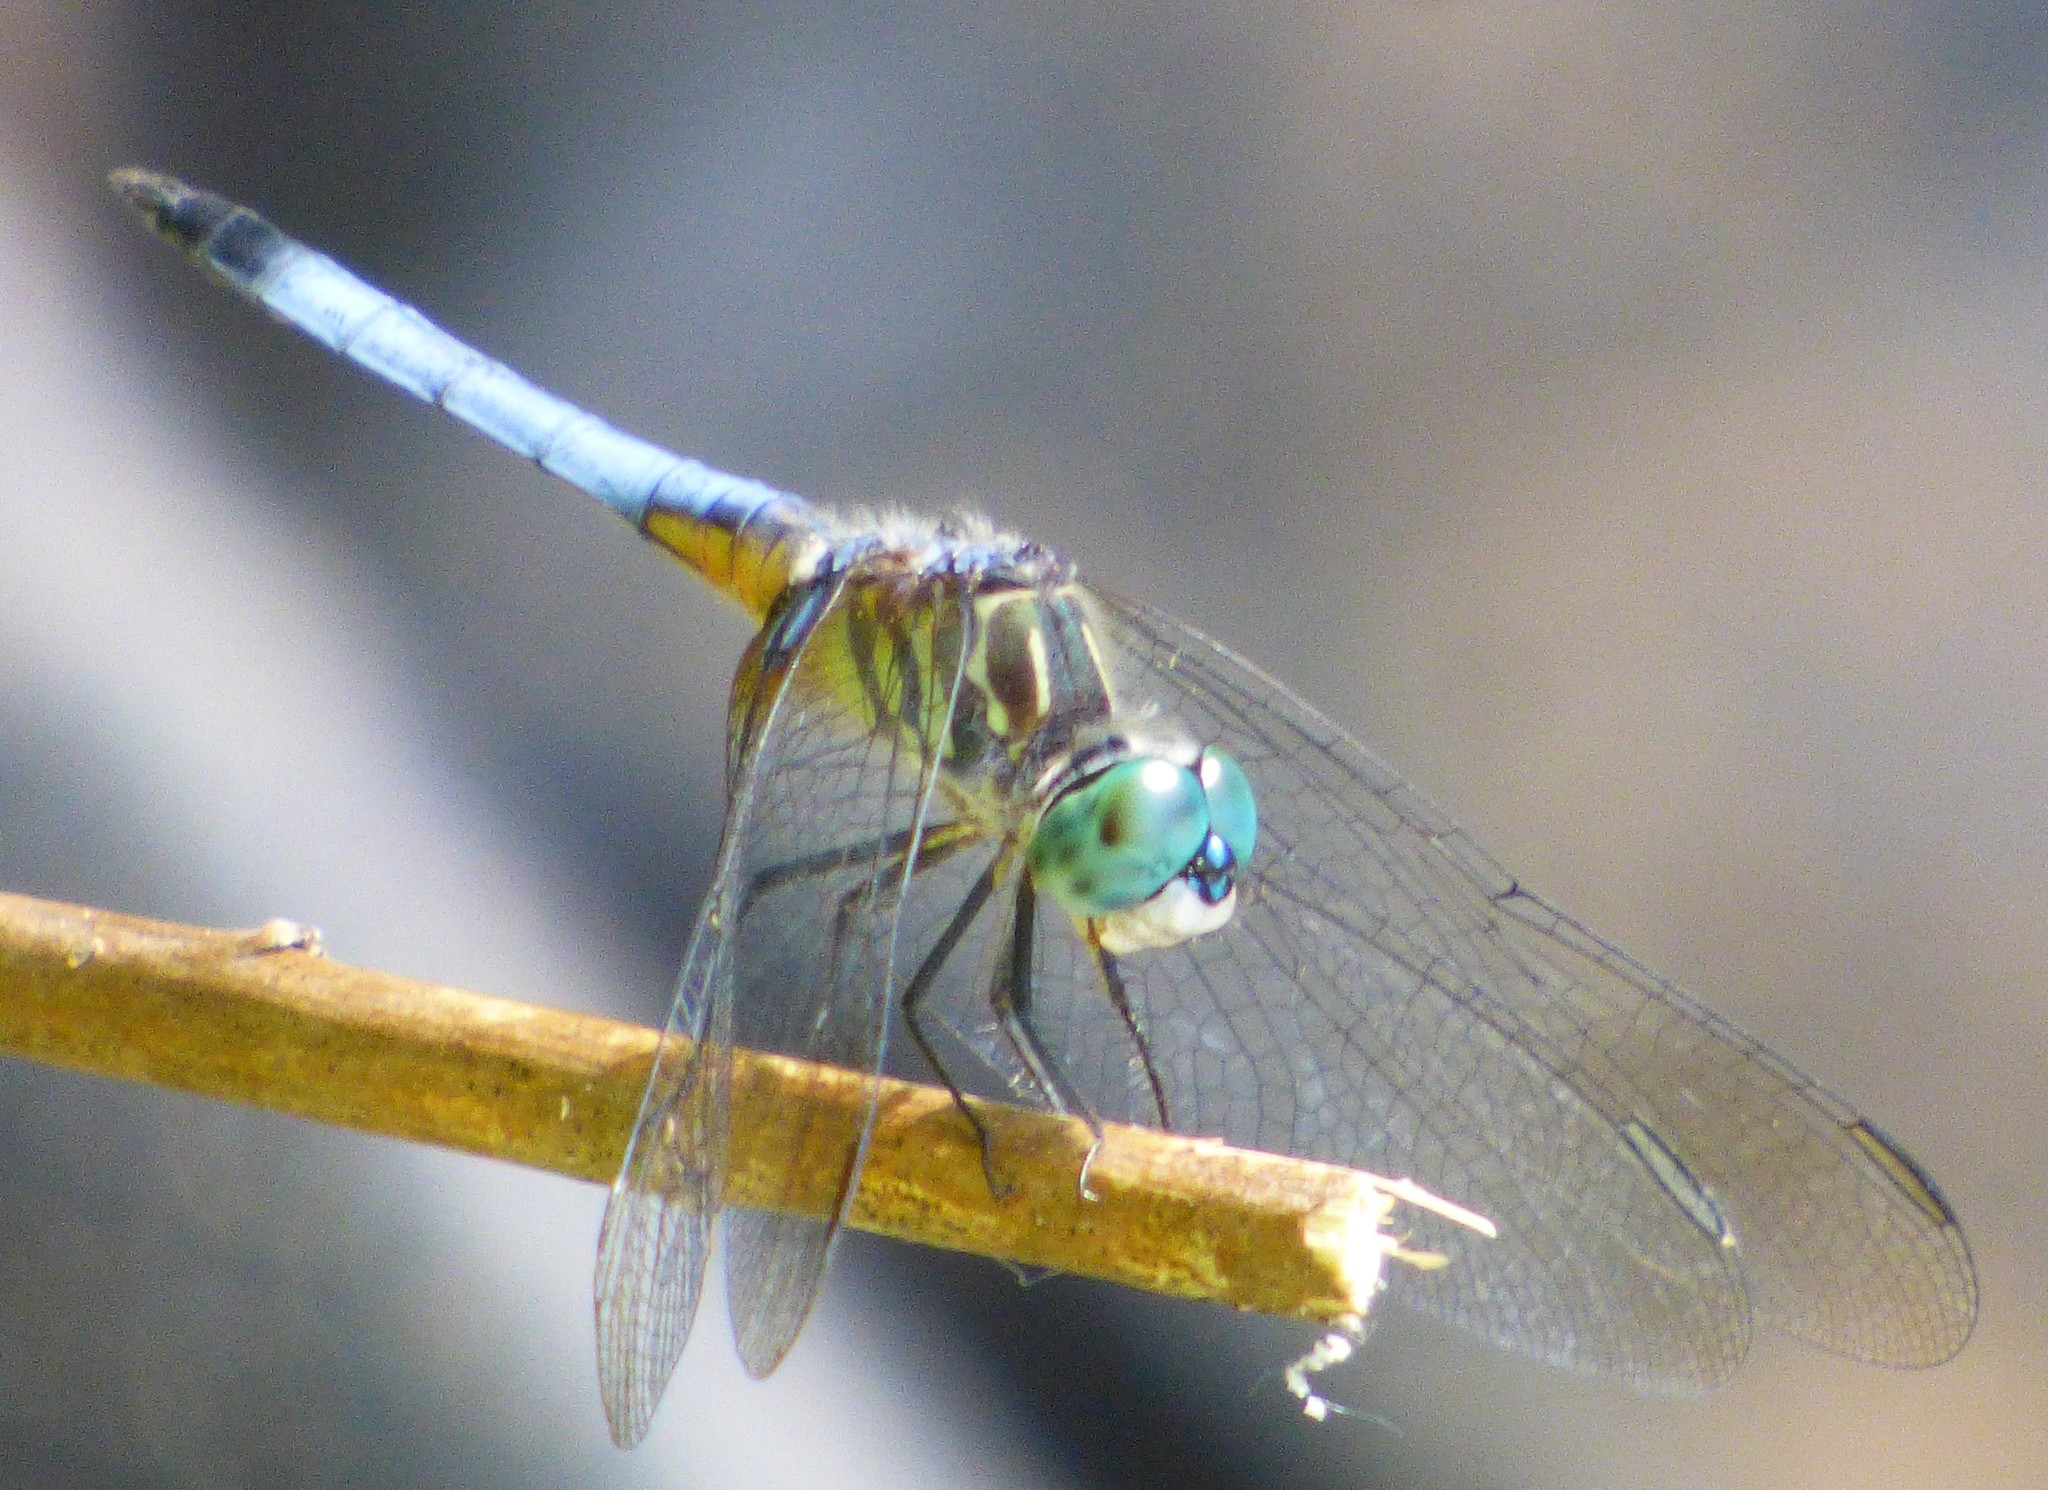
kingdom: Animalia
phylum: Arthropoda
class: Insecta
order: Odonata
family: Libellulidae
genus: Pachydiplax
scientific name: Pachydiplax longipennis
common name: Blue dasher
